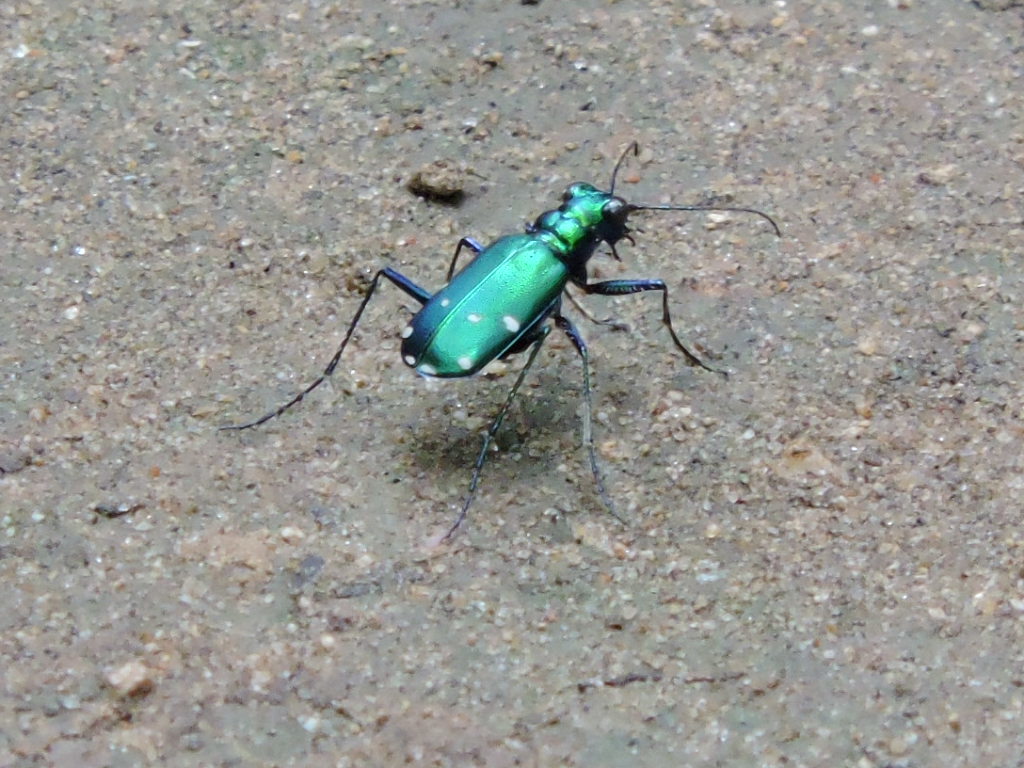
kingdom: Animalia
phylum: Arthropoda
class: Insecta
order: Coleoptera
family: Carabidae
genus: Cicindela
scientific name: Cicindela sexguttata
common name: Six-spotted tiger beetle
